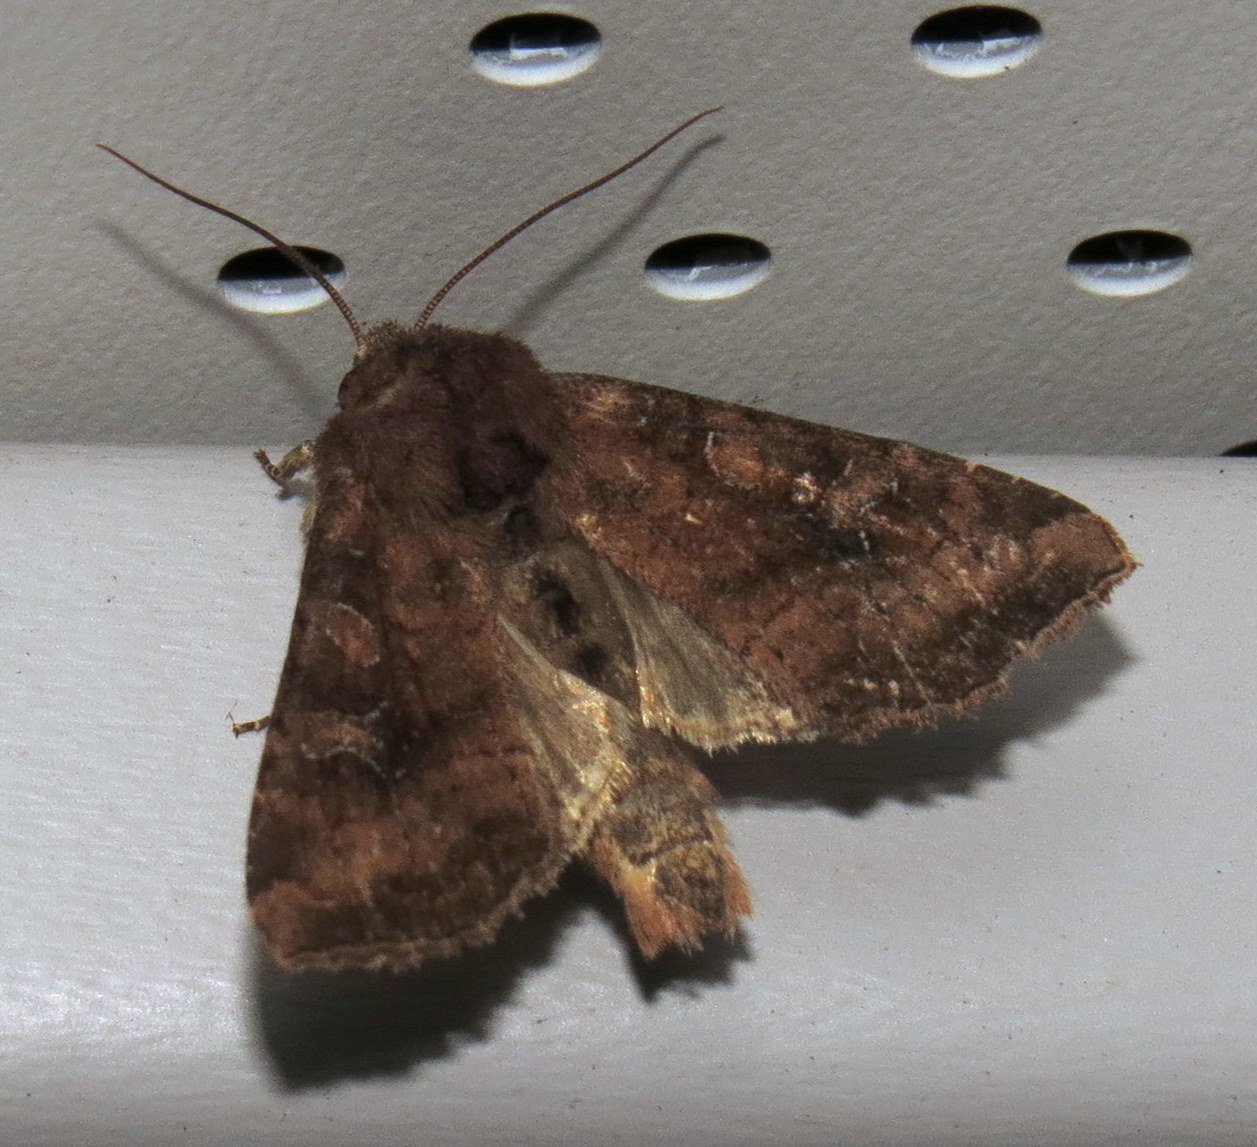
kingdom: Animalia
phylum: Arthropoda
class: Insecta
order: Lepidoptera
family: Noctuidae
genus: Loscopia
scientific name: Loscopia velata
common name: Veiled ear moth
